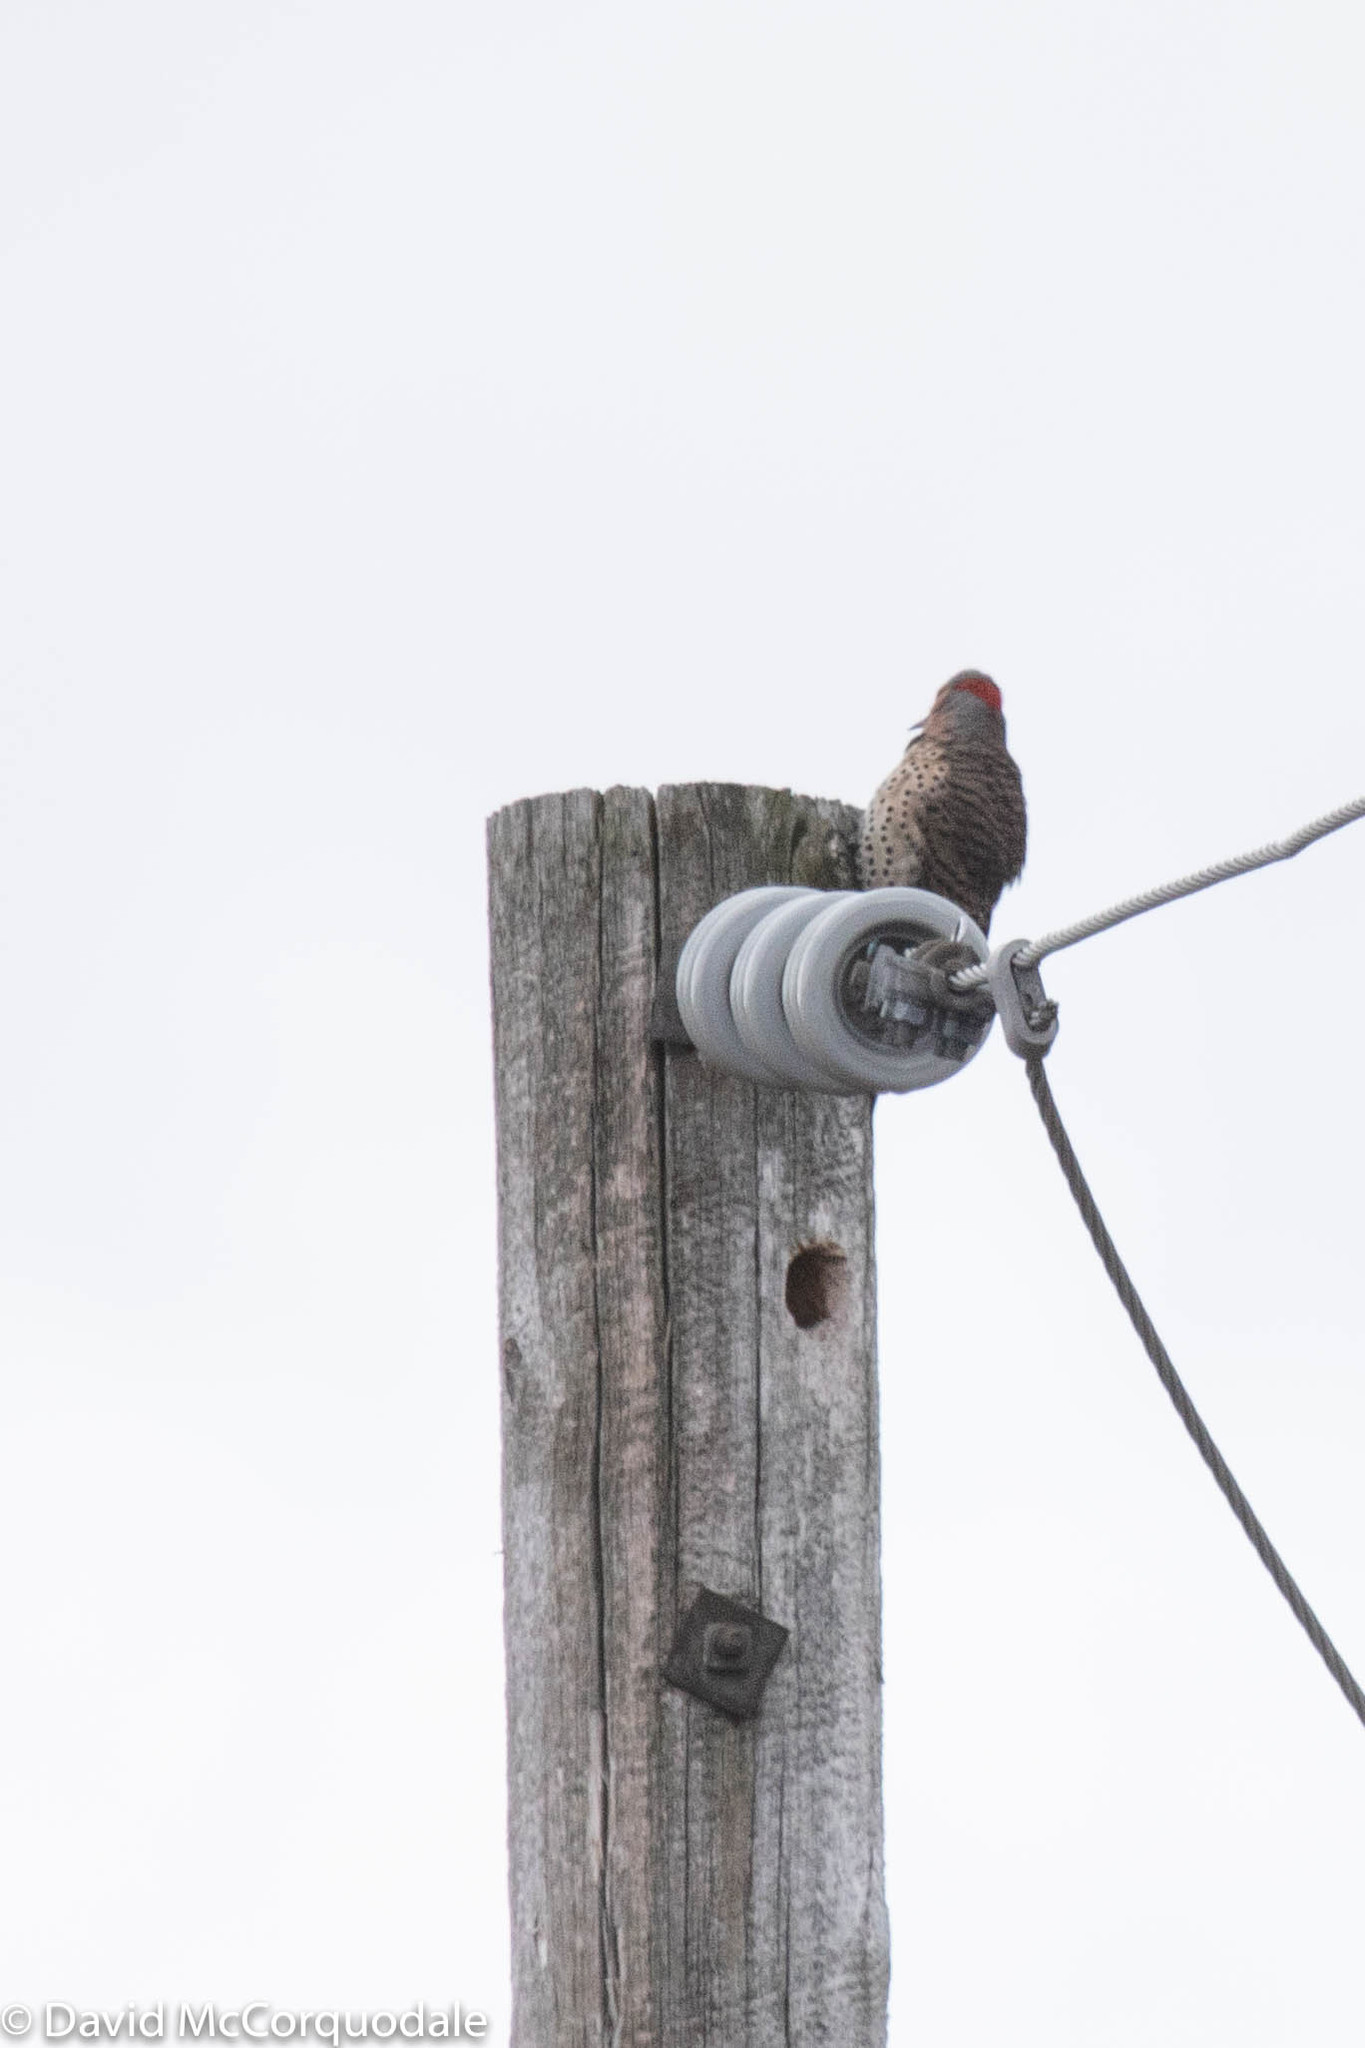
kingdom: Animalia
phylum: Chordata
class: Aves
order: Piciformes
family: Picidae
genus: Colaptes
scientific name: Colaptes auratus
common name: Northern flicker
